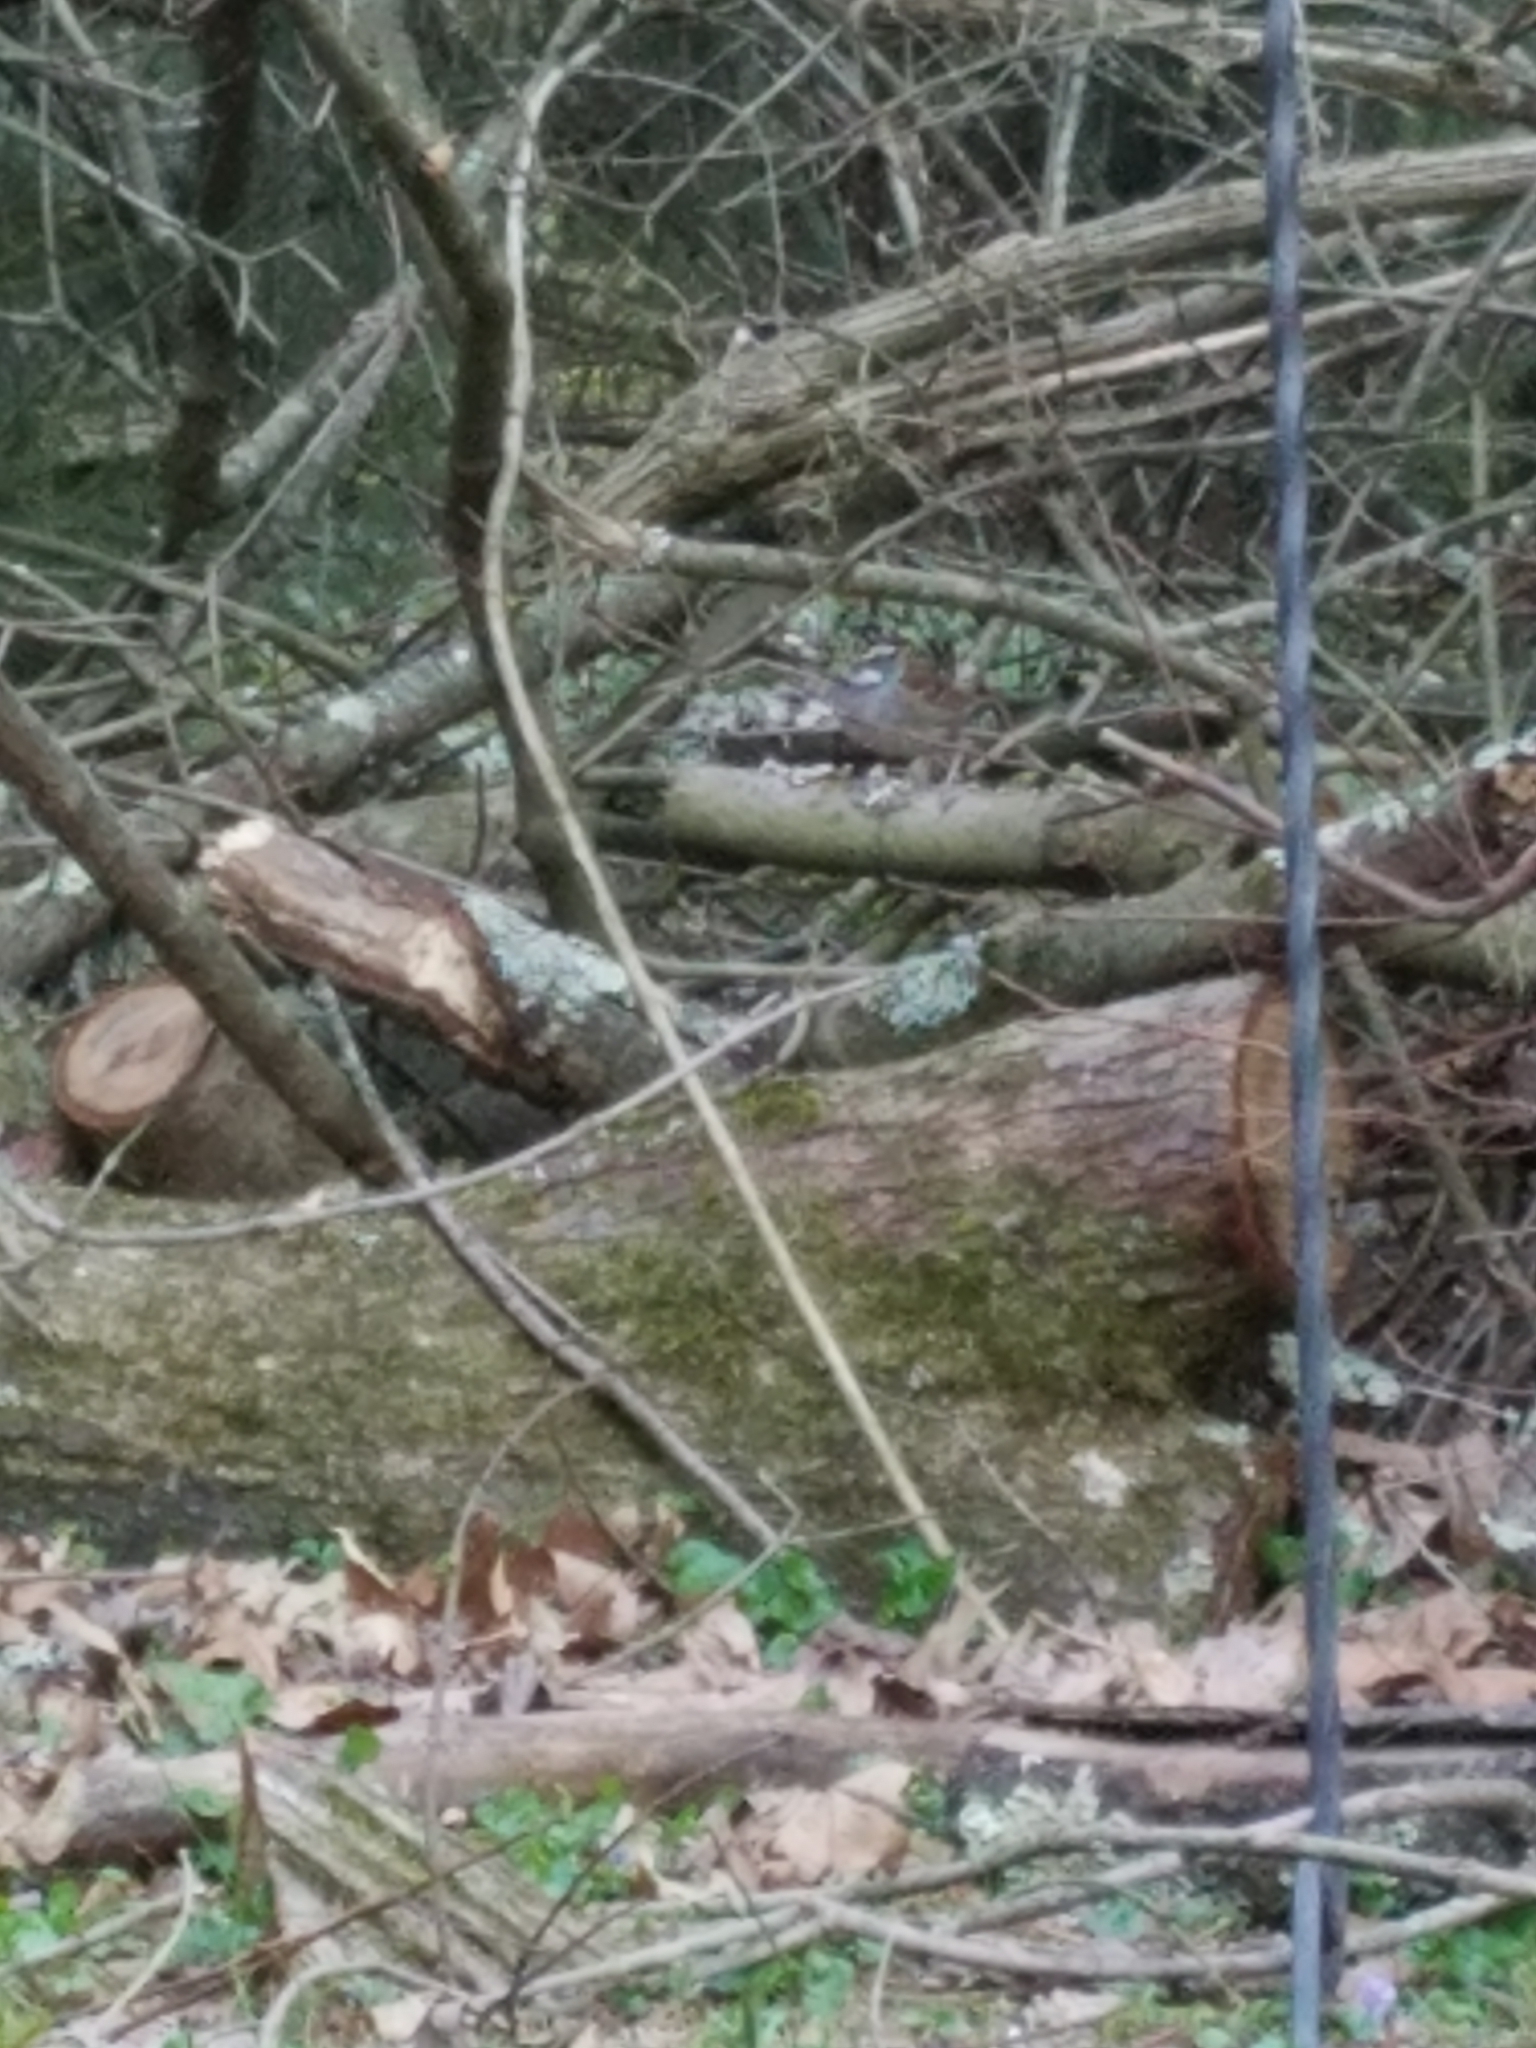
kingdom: Animalia
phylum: Chordata
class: Aves
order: Passeriformes
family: Passerellidae
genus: Zonotrichia
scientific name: Zonotrichia albicollis
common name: White-throated sparrow
